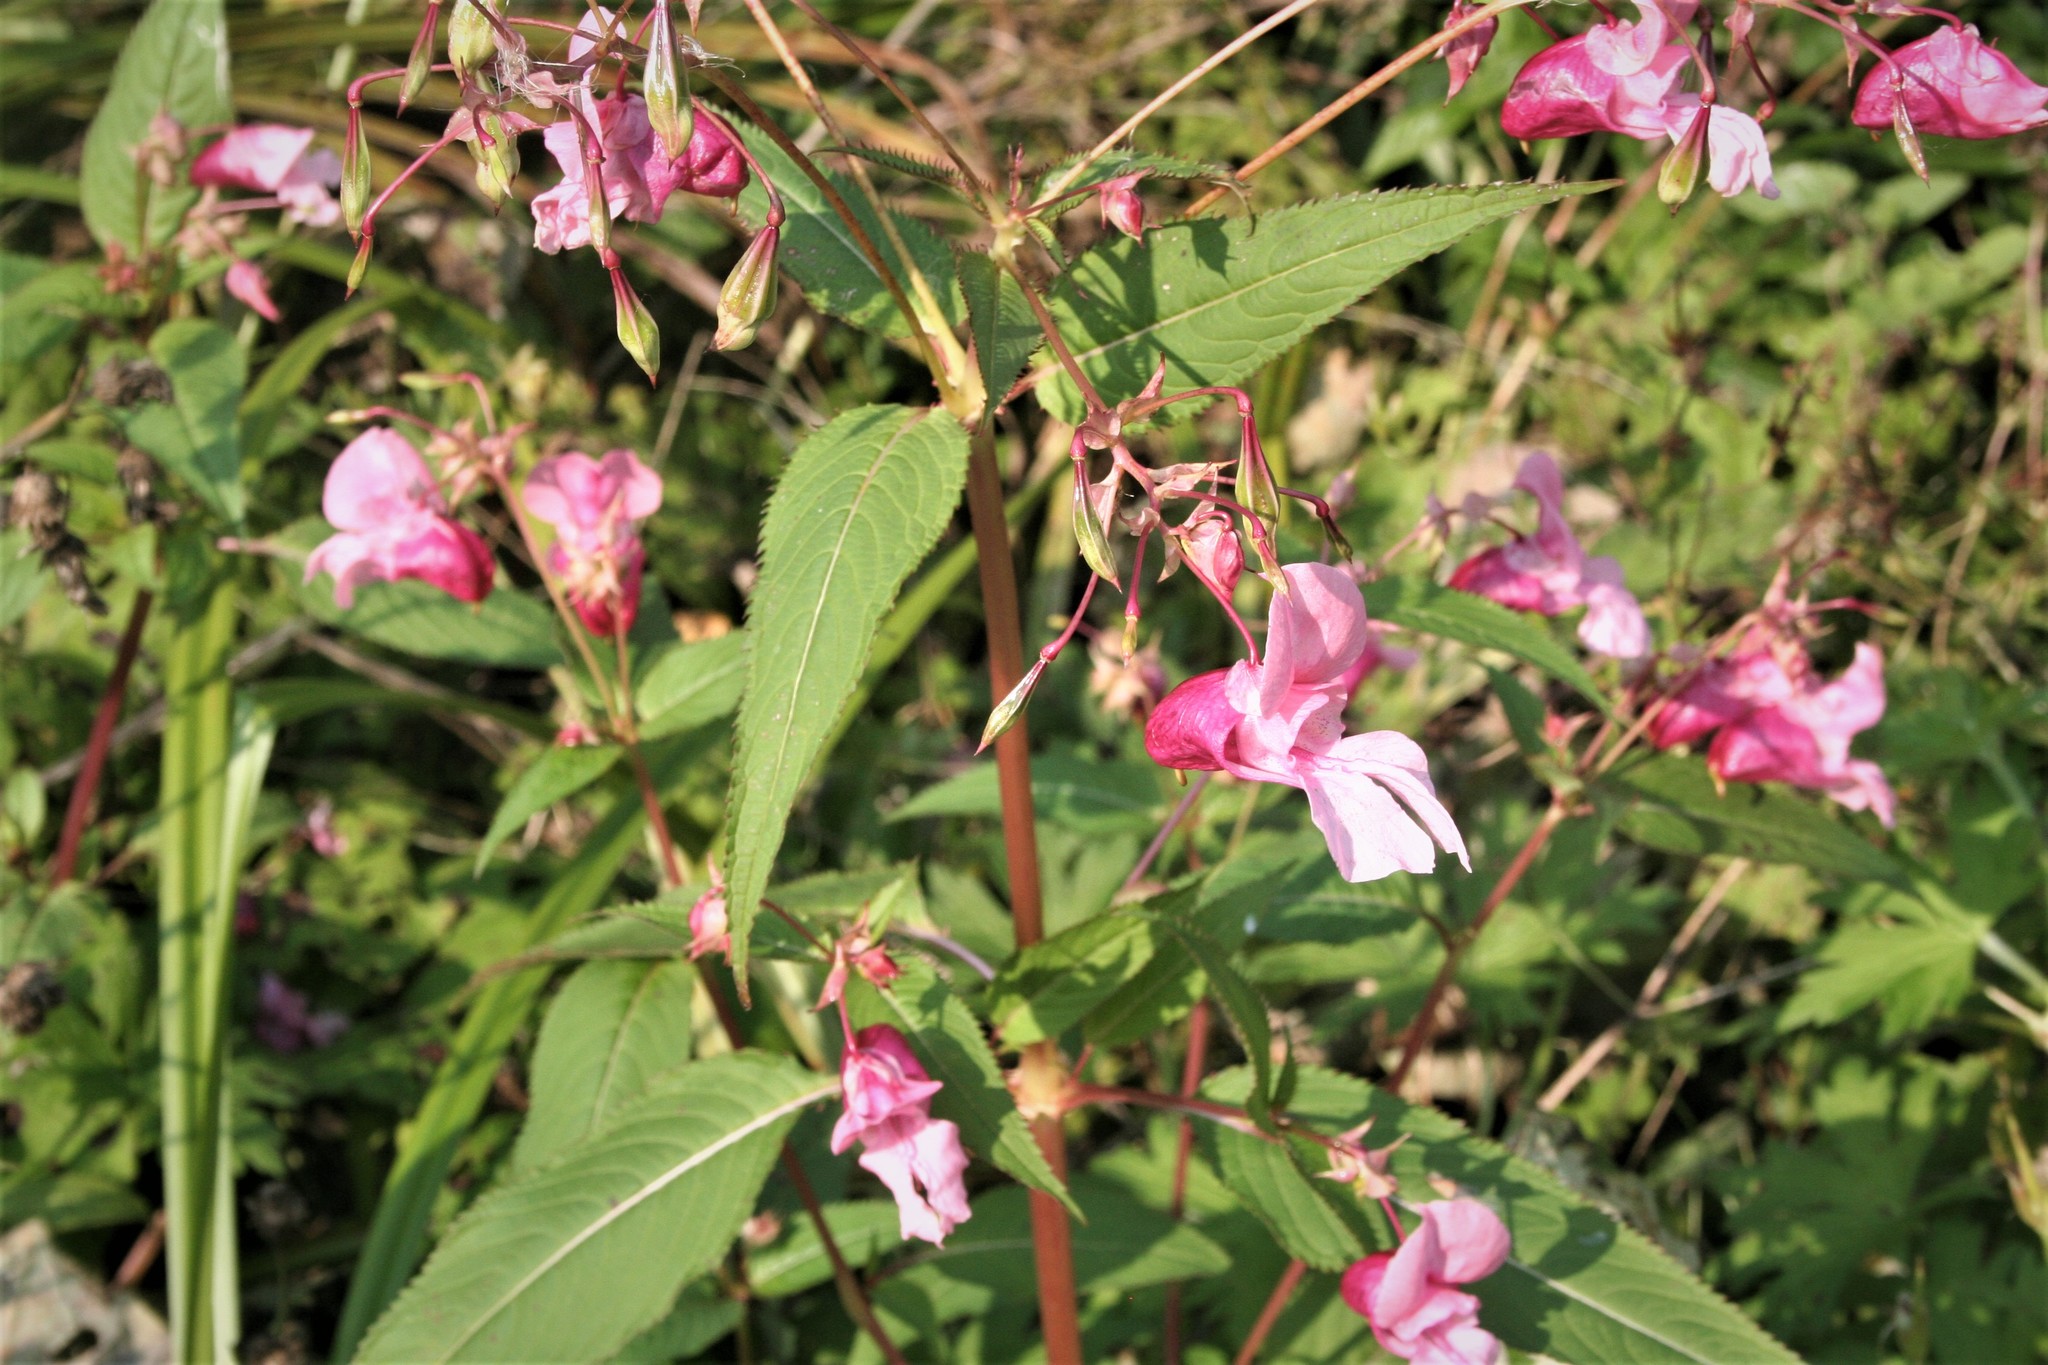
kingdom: Plantae
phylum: Tracheophyta
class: Magnoliopsida
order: Ericales
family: Balsaminaceae
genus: Impatiens
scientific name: Impatiens glandulifera
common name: Himalayan balsam
